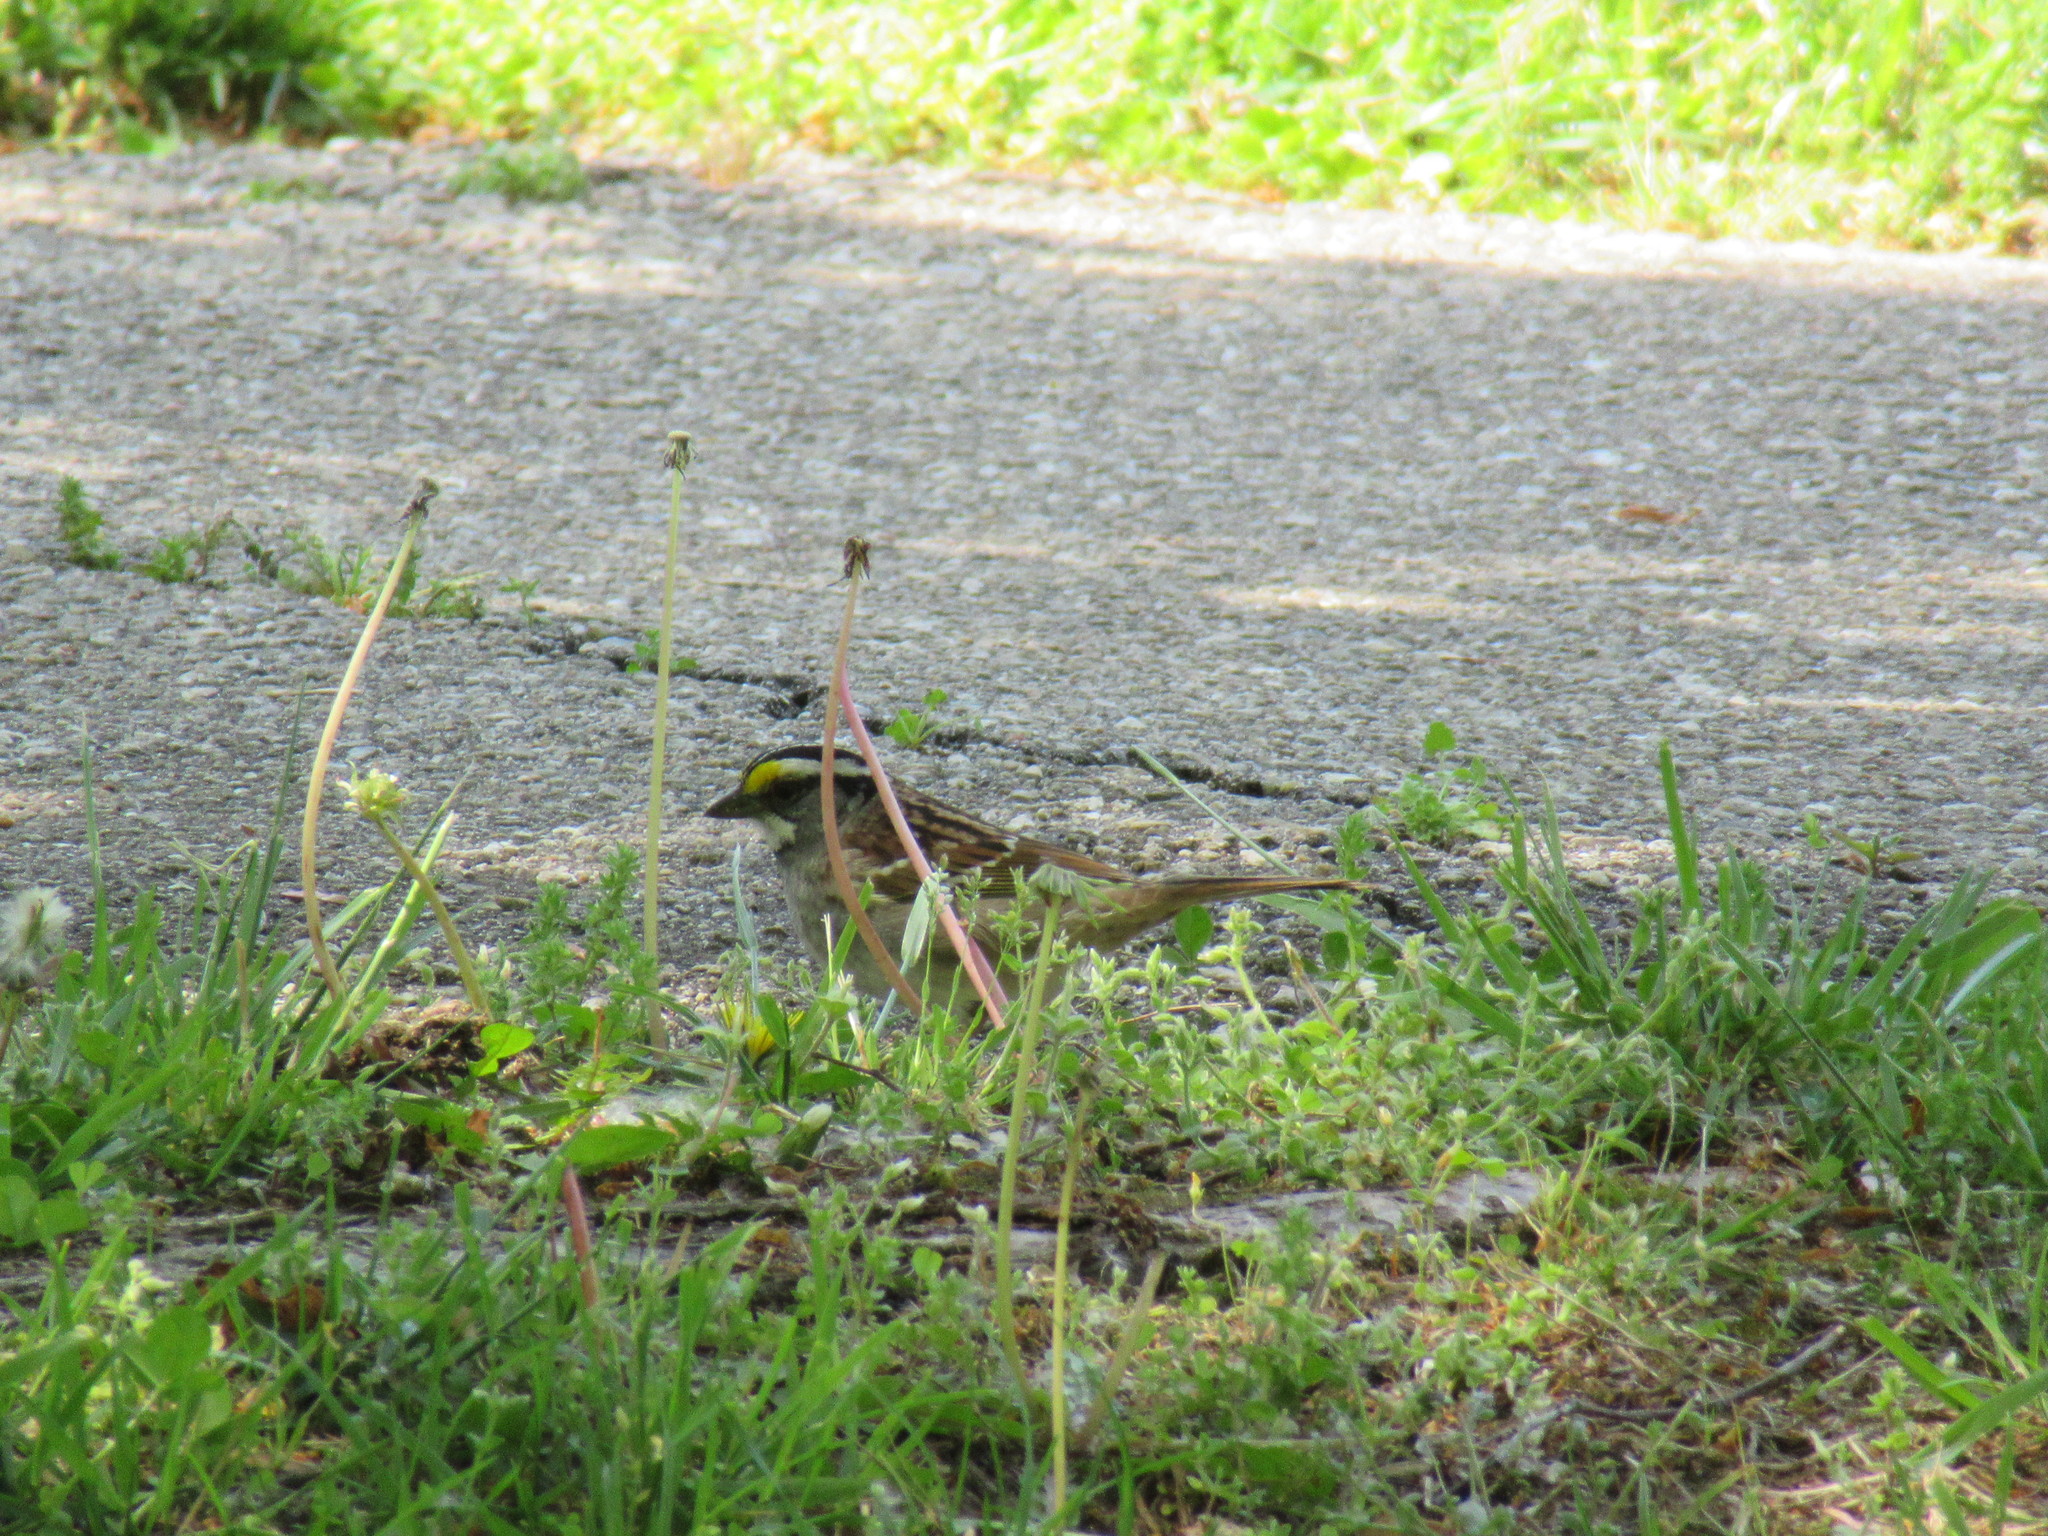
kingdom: Animalia
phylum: Chordata
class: Aves
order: Passeriformes
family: Passerellidae
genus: Zonotrichia
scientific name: Zonotrichia albicollis
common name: White-throated sparrow
